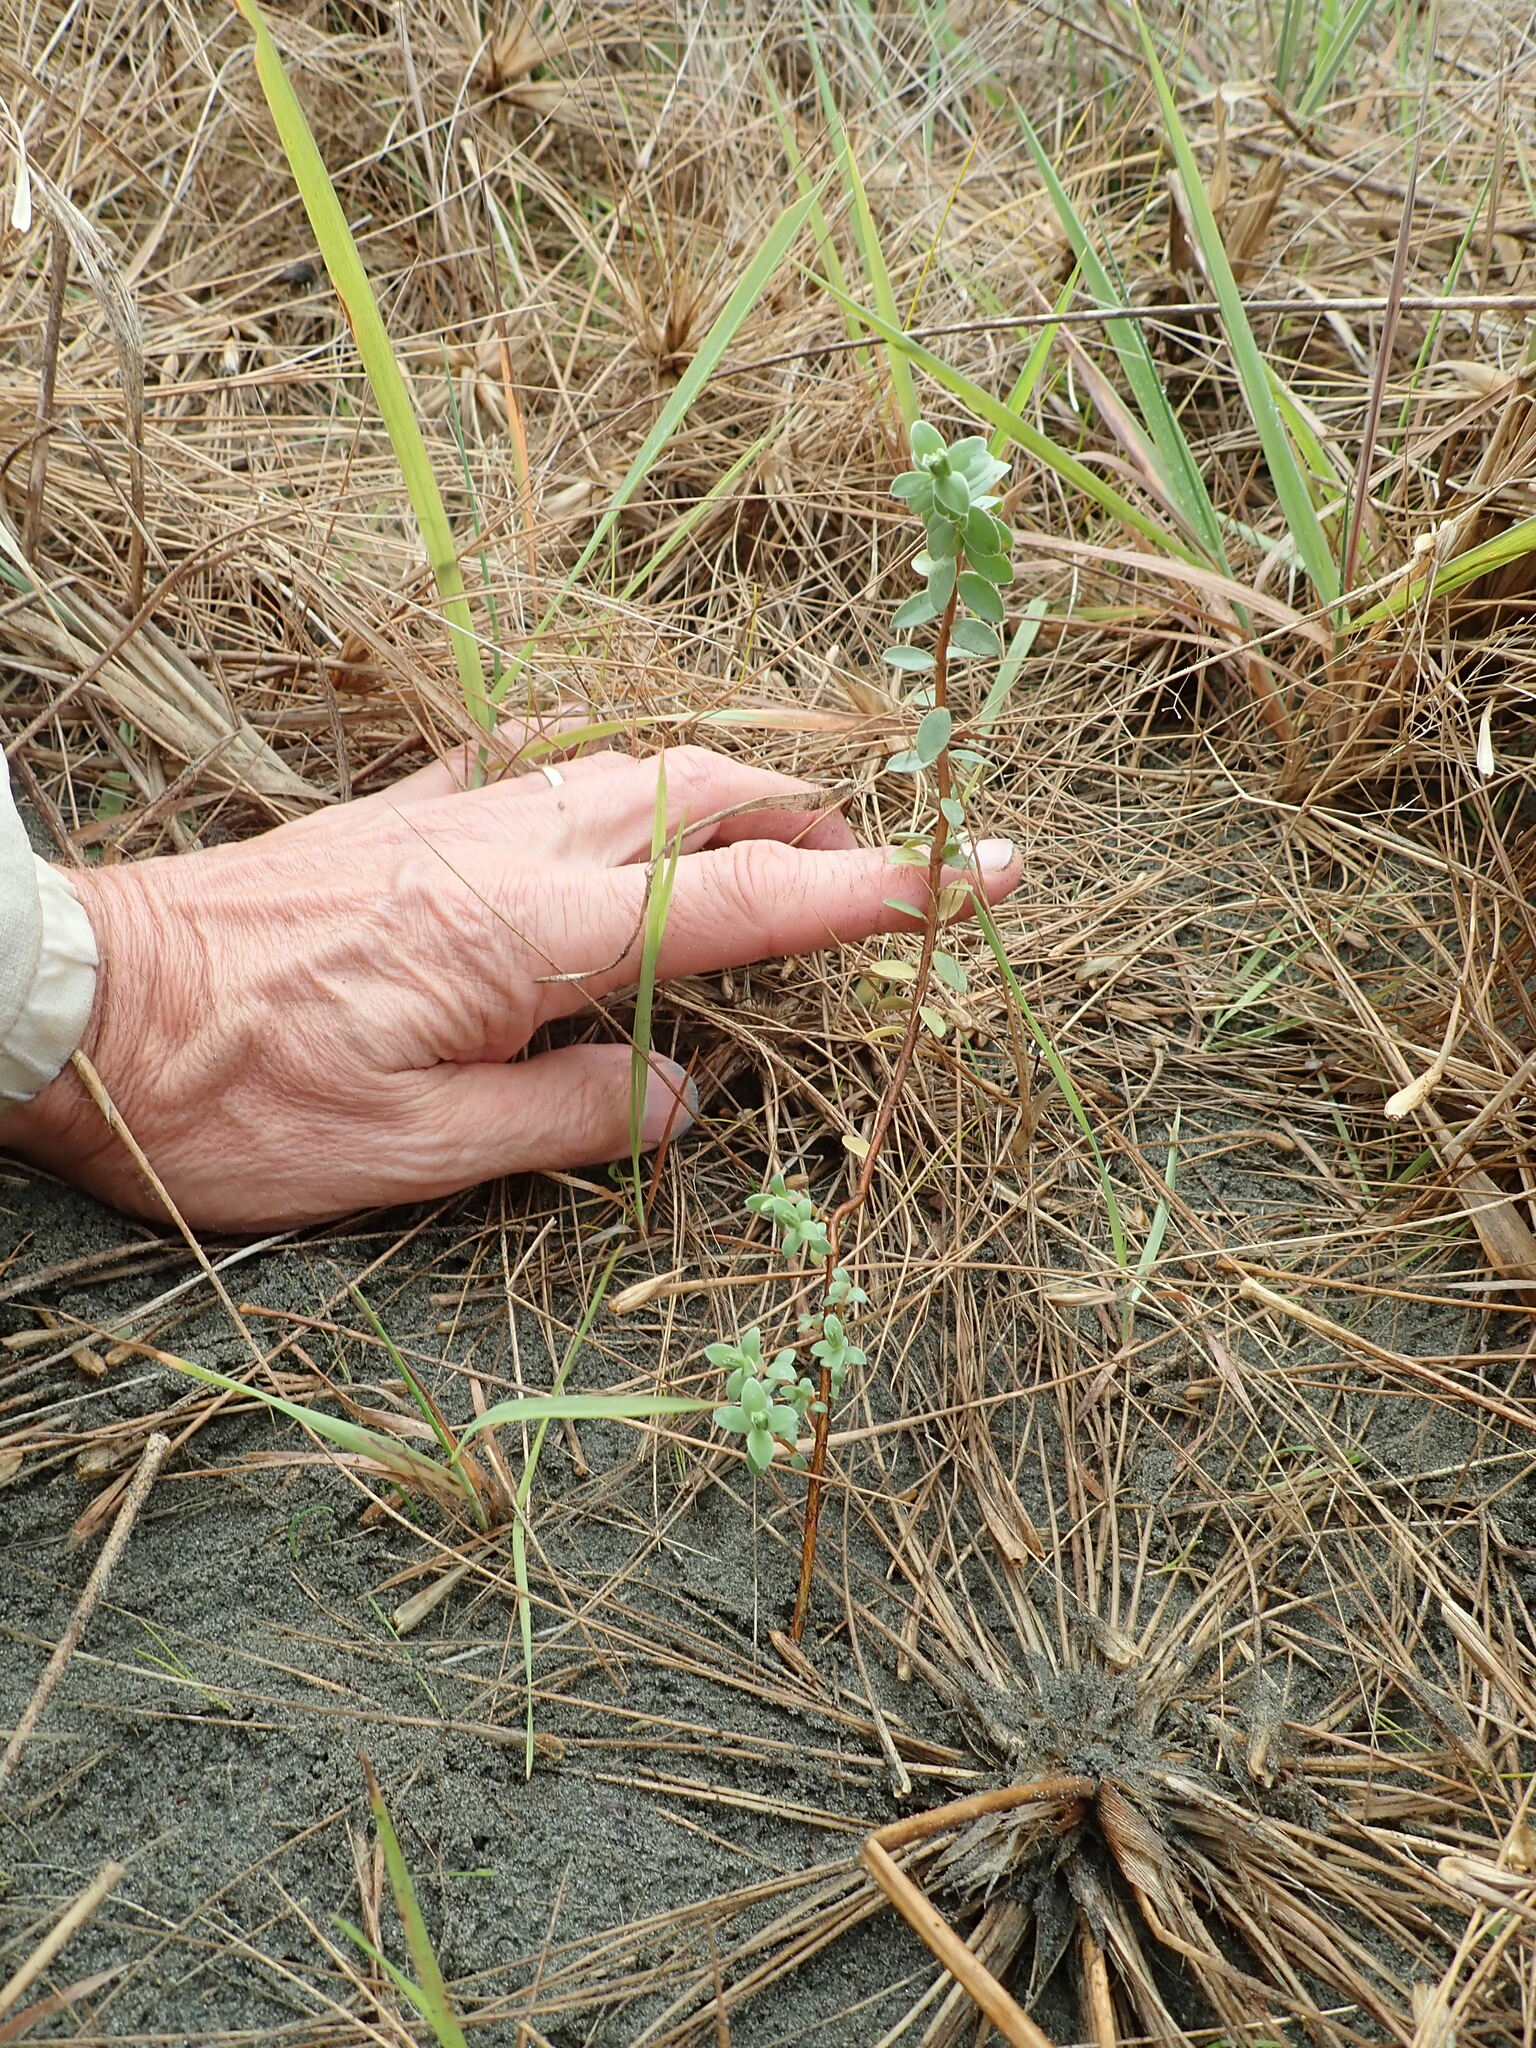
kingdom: Plantae
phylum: Tracheophyta
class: Magnoliopsida
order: Malvales
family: Thymelaeaceae
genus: Pimelea
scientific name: Pimelea villosa
